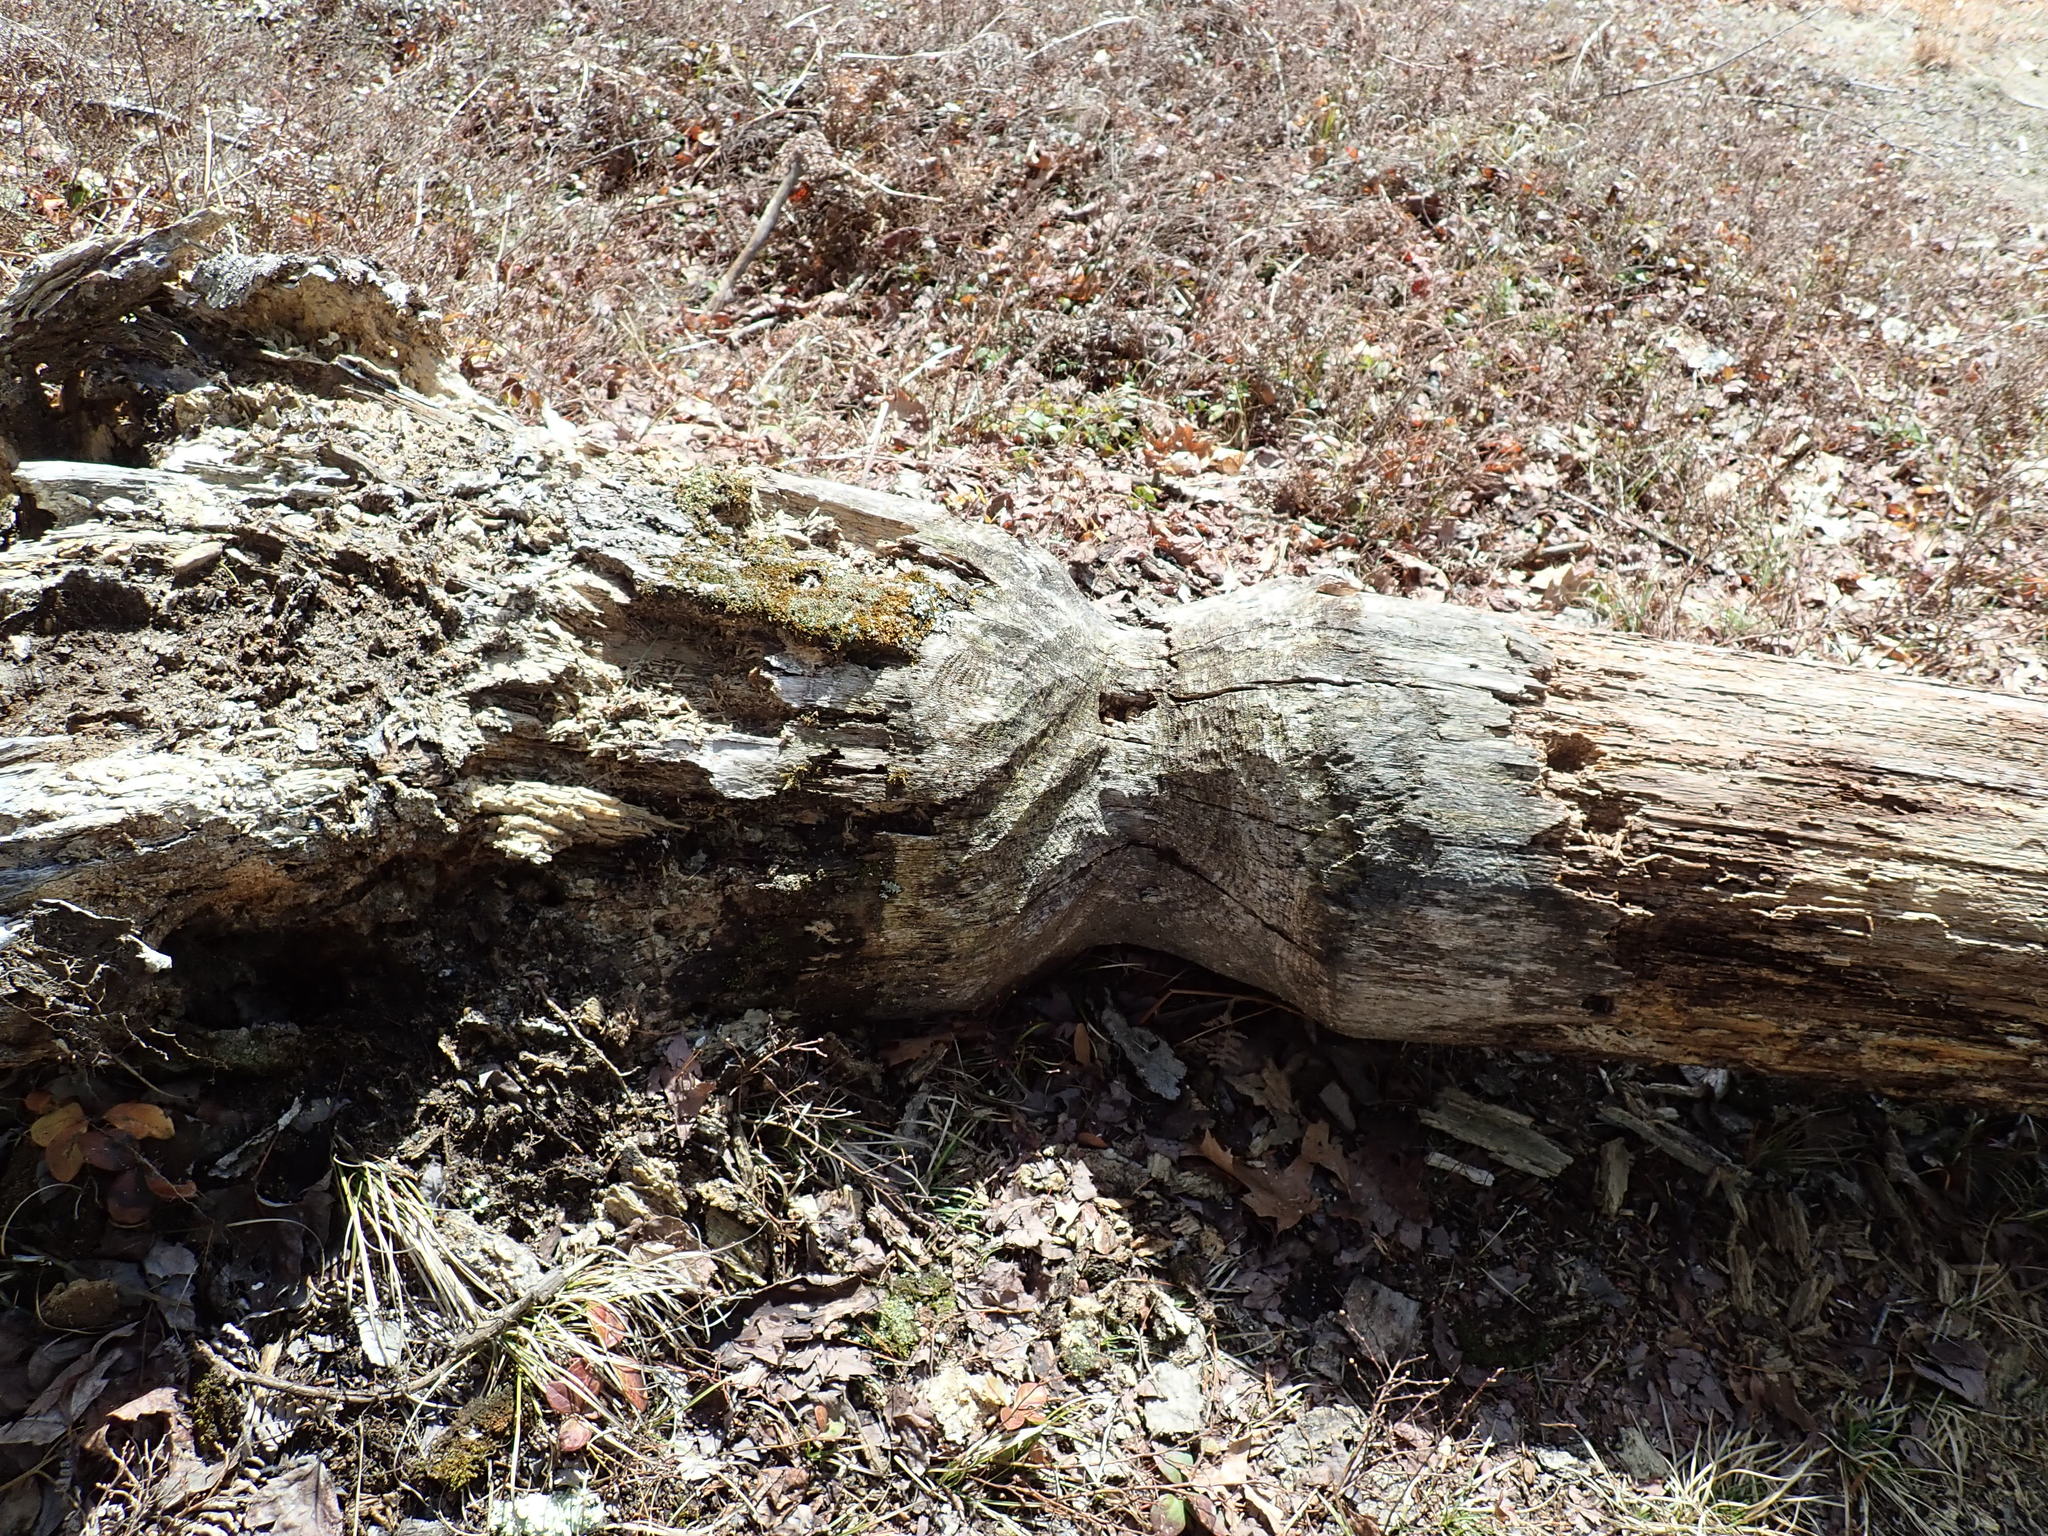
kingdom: Animalia
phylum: Chordata
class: Mammalia
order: Rodentia
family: Castoridae
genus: Castor
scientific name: Castor canadensis
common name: American beaver
